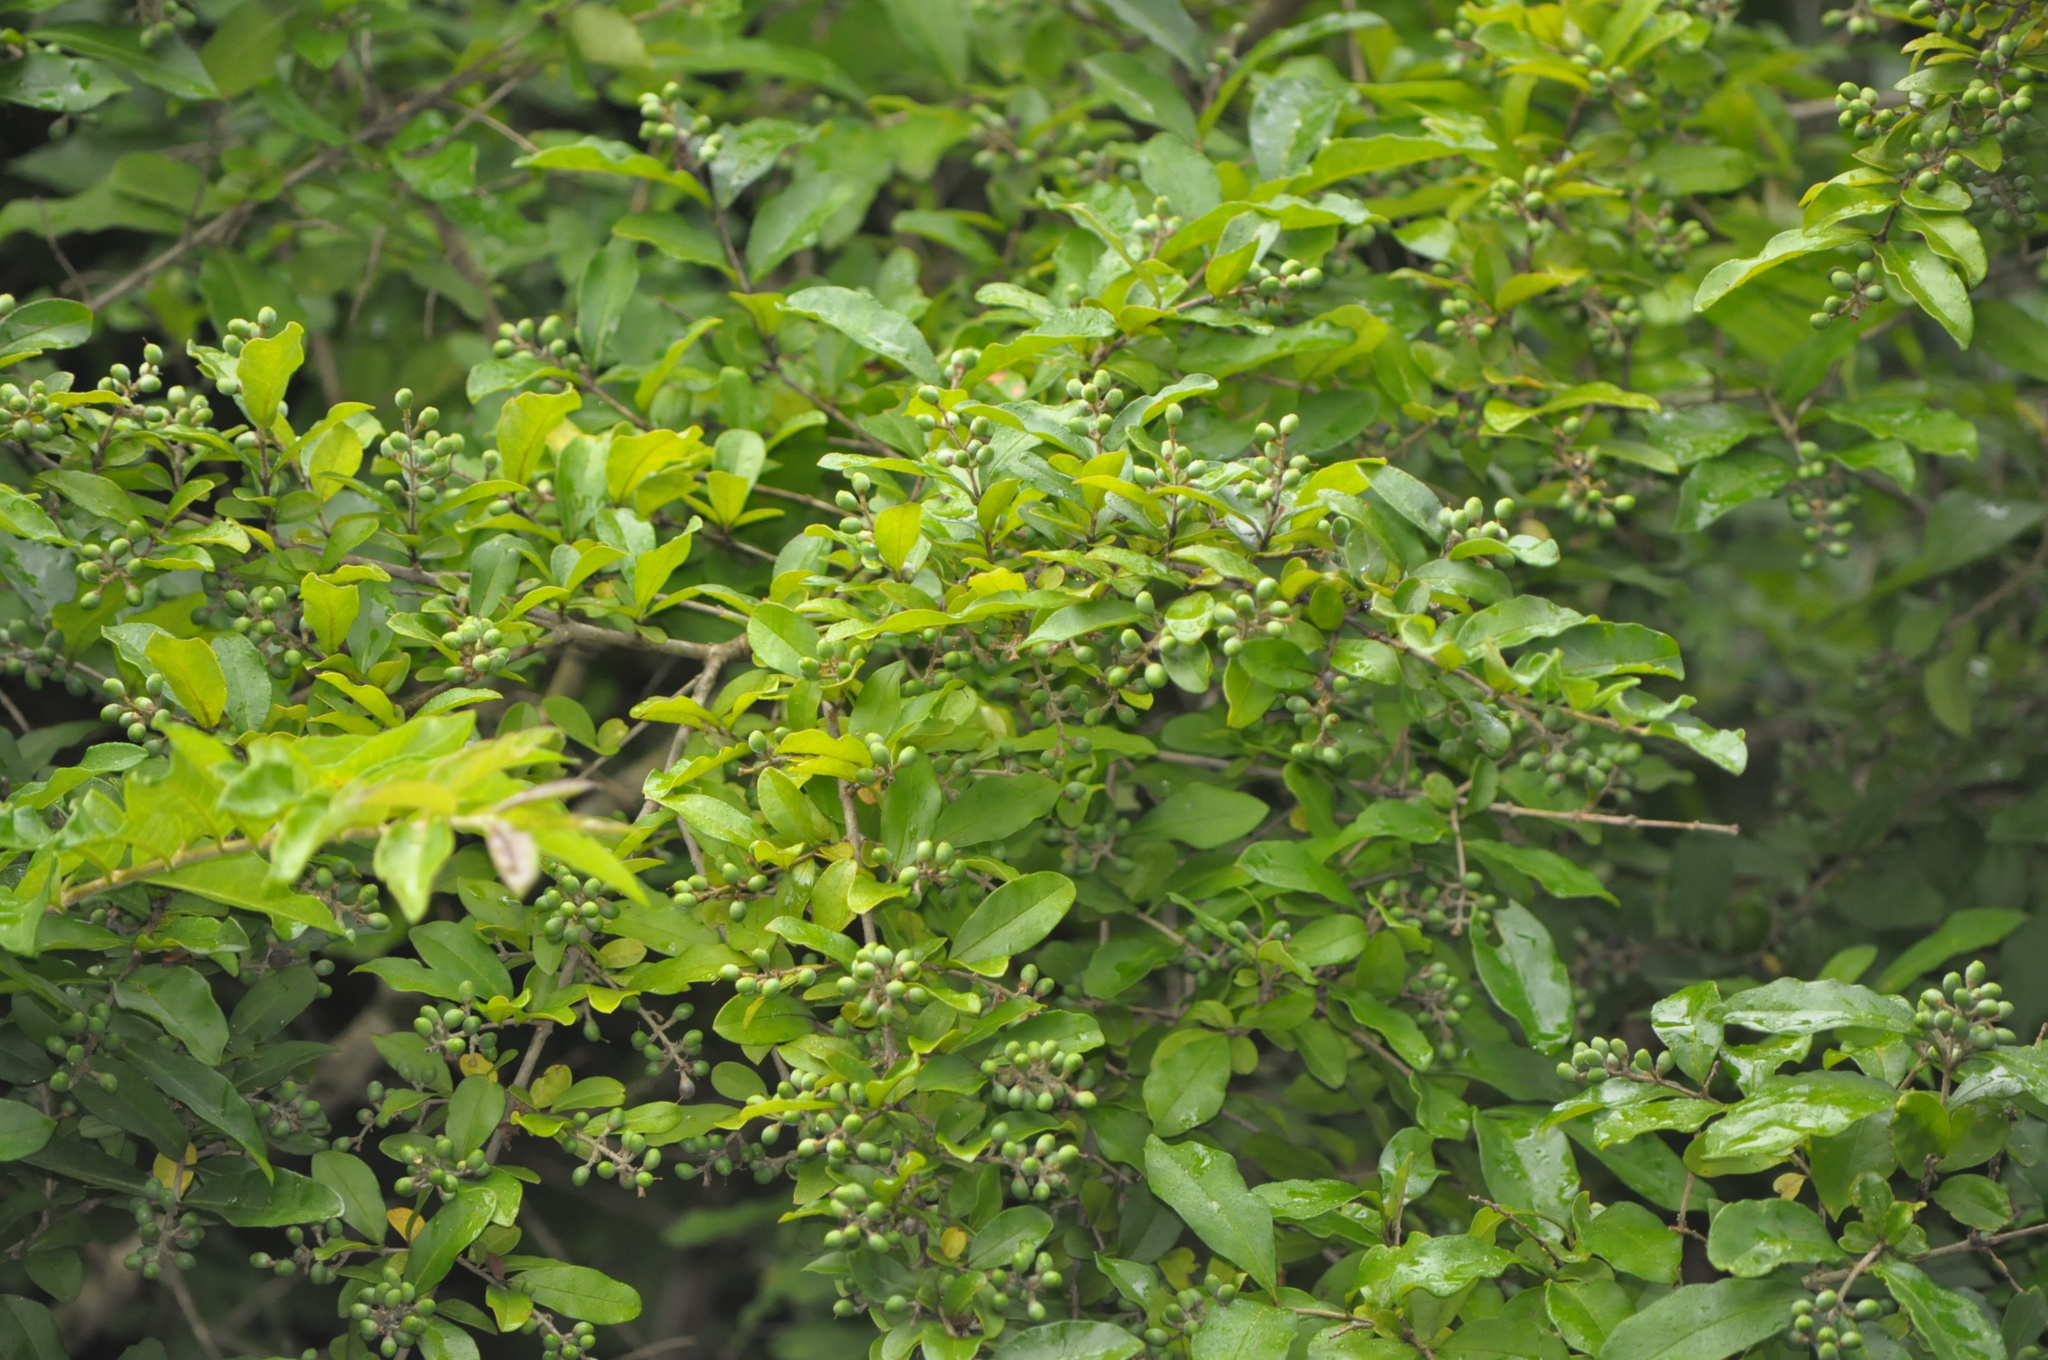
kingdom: Plantae
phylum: Tracheophyta
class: Magnoliopsida
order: Lamiales
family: Oleaceae
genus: Ligustrum
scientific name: Ligustrum obtusifolium
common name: Border privet
